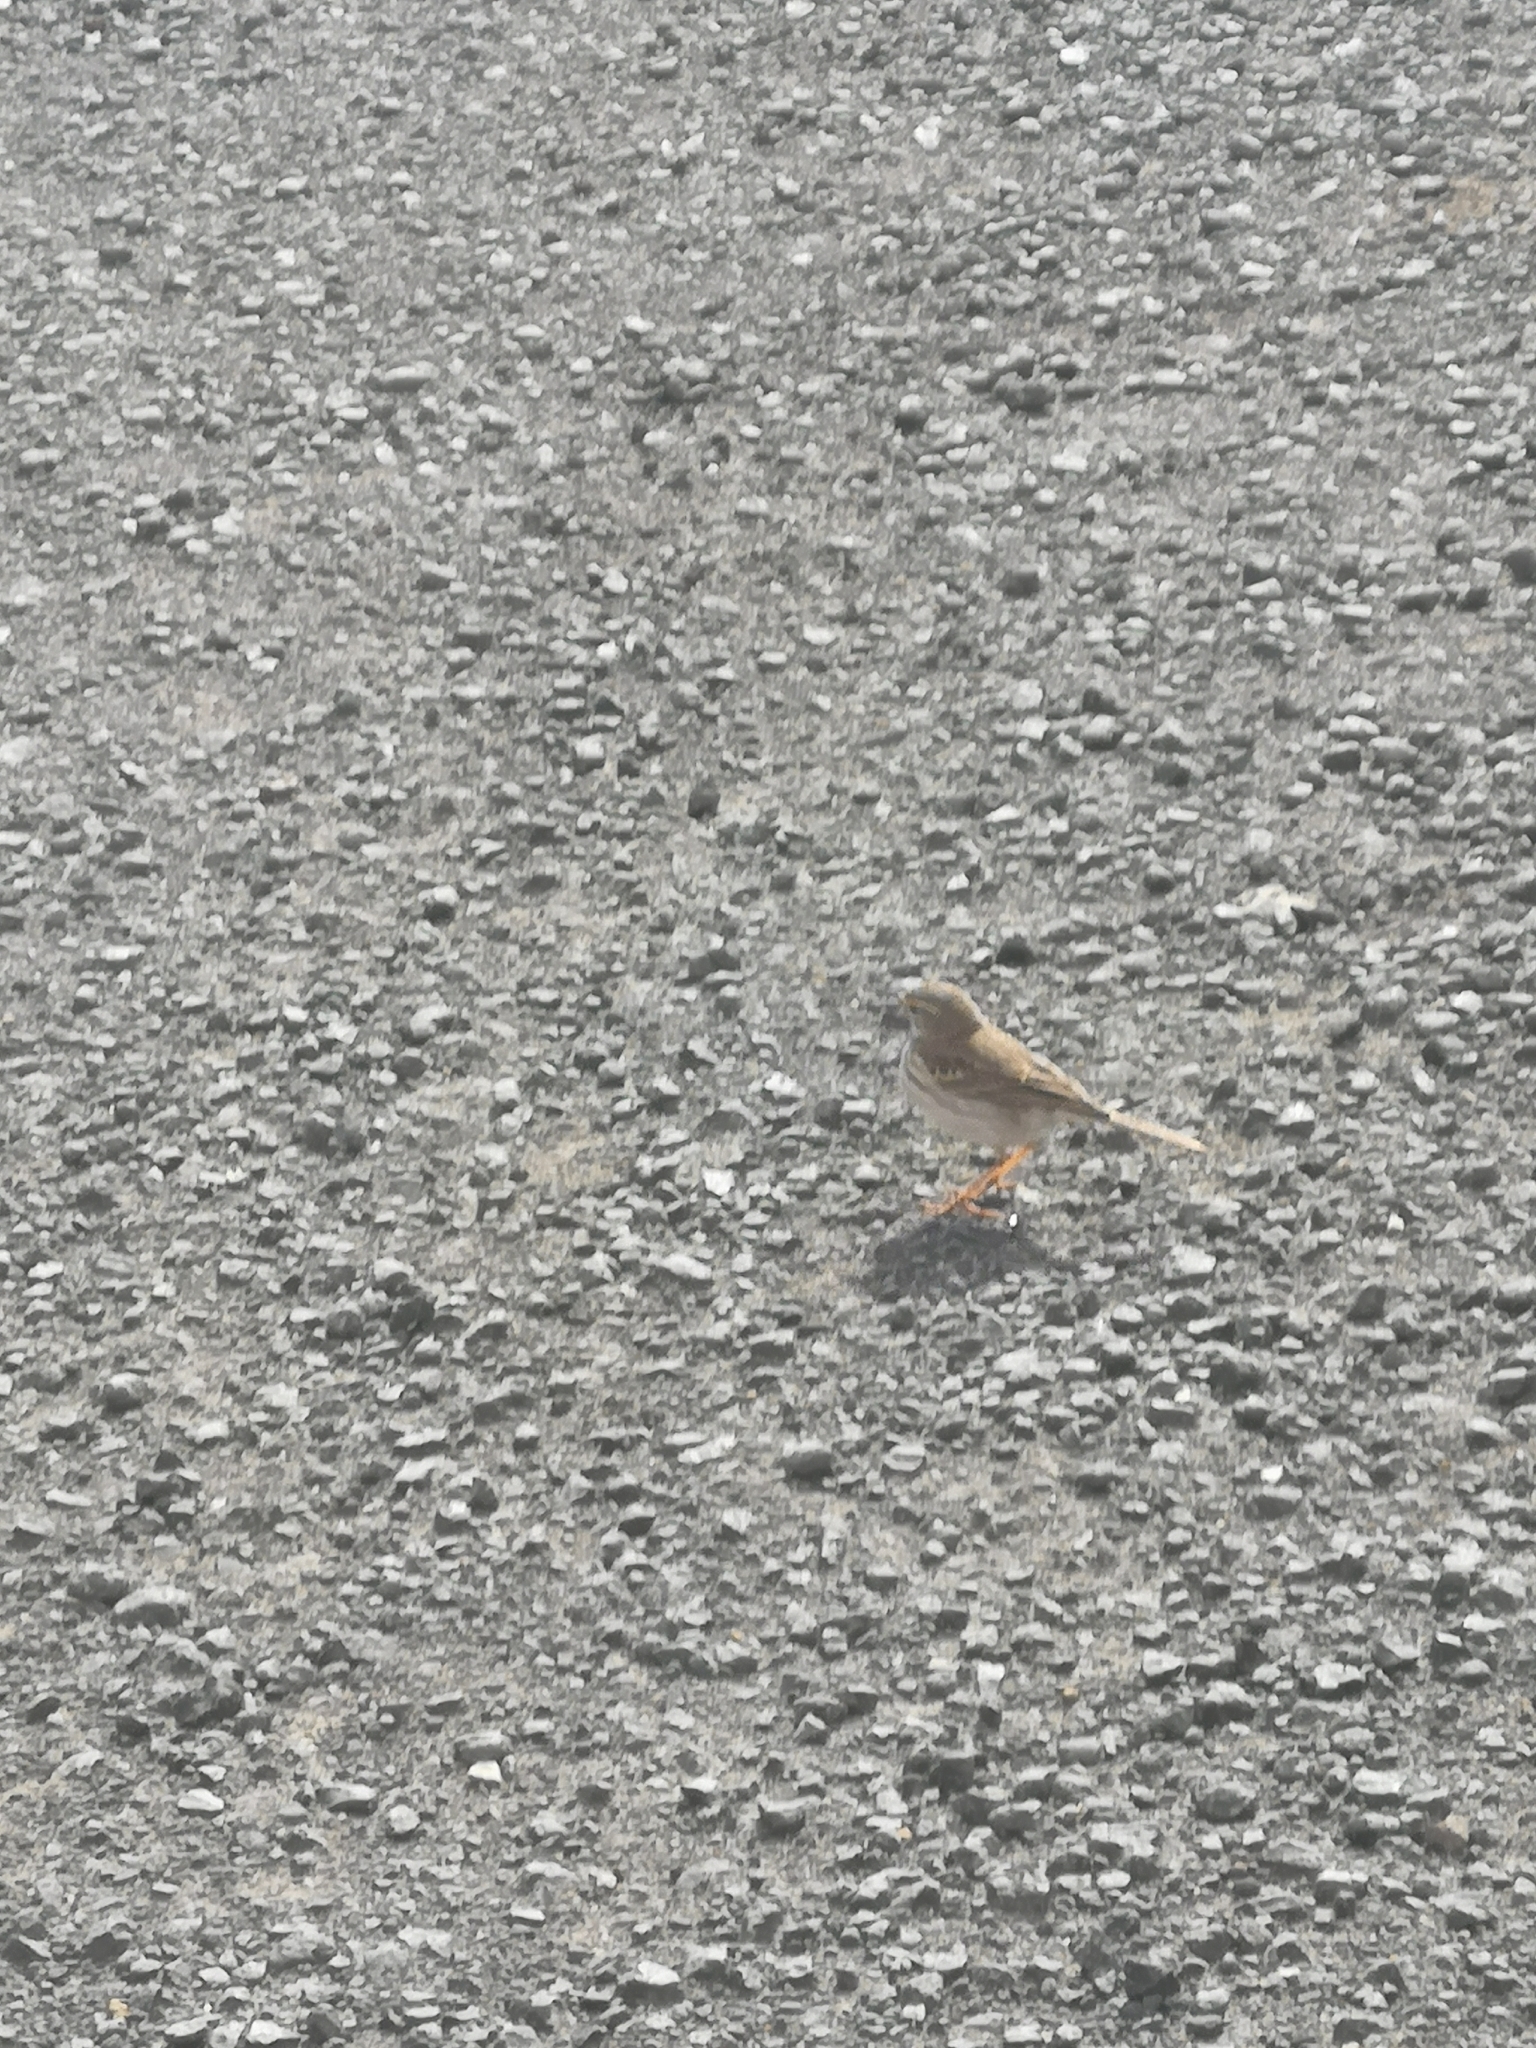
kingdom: Animalia
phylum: Chordata
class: Aves
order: Passeriformes
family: Motacillidae
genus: Anthus
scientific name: Anthus berthelotii
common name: Berthelot's pipit
